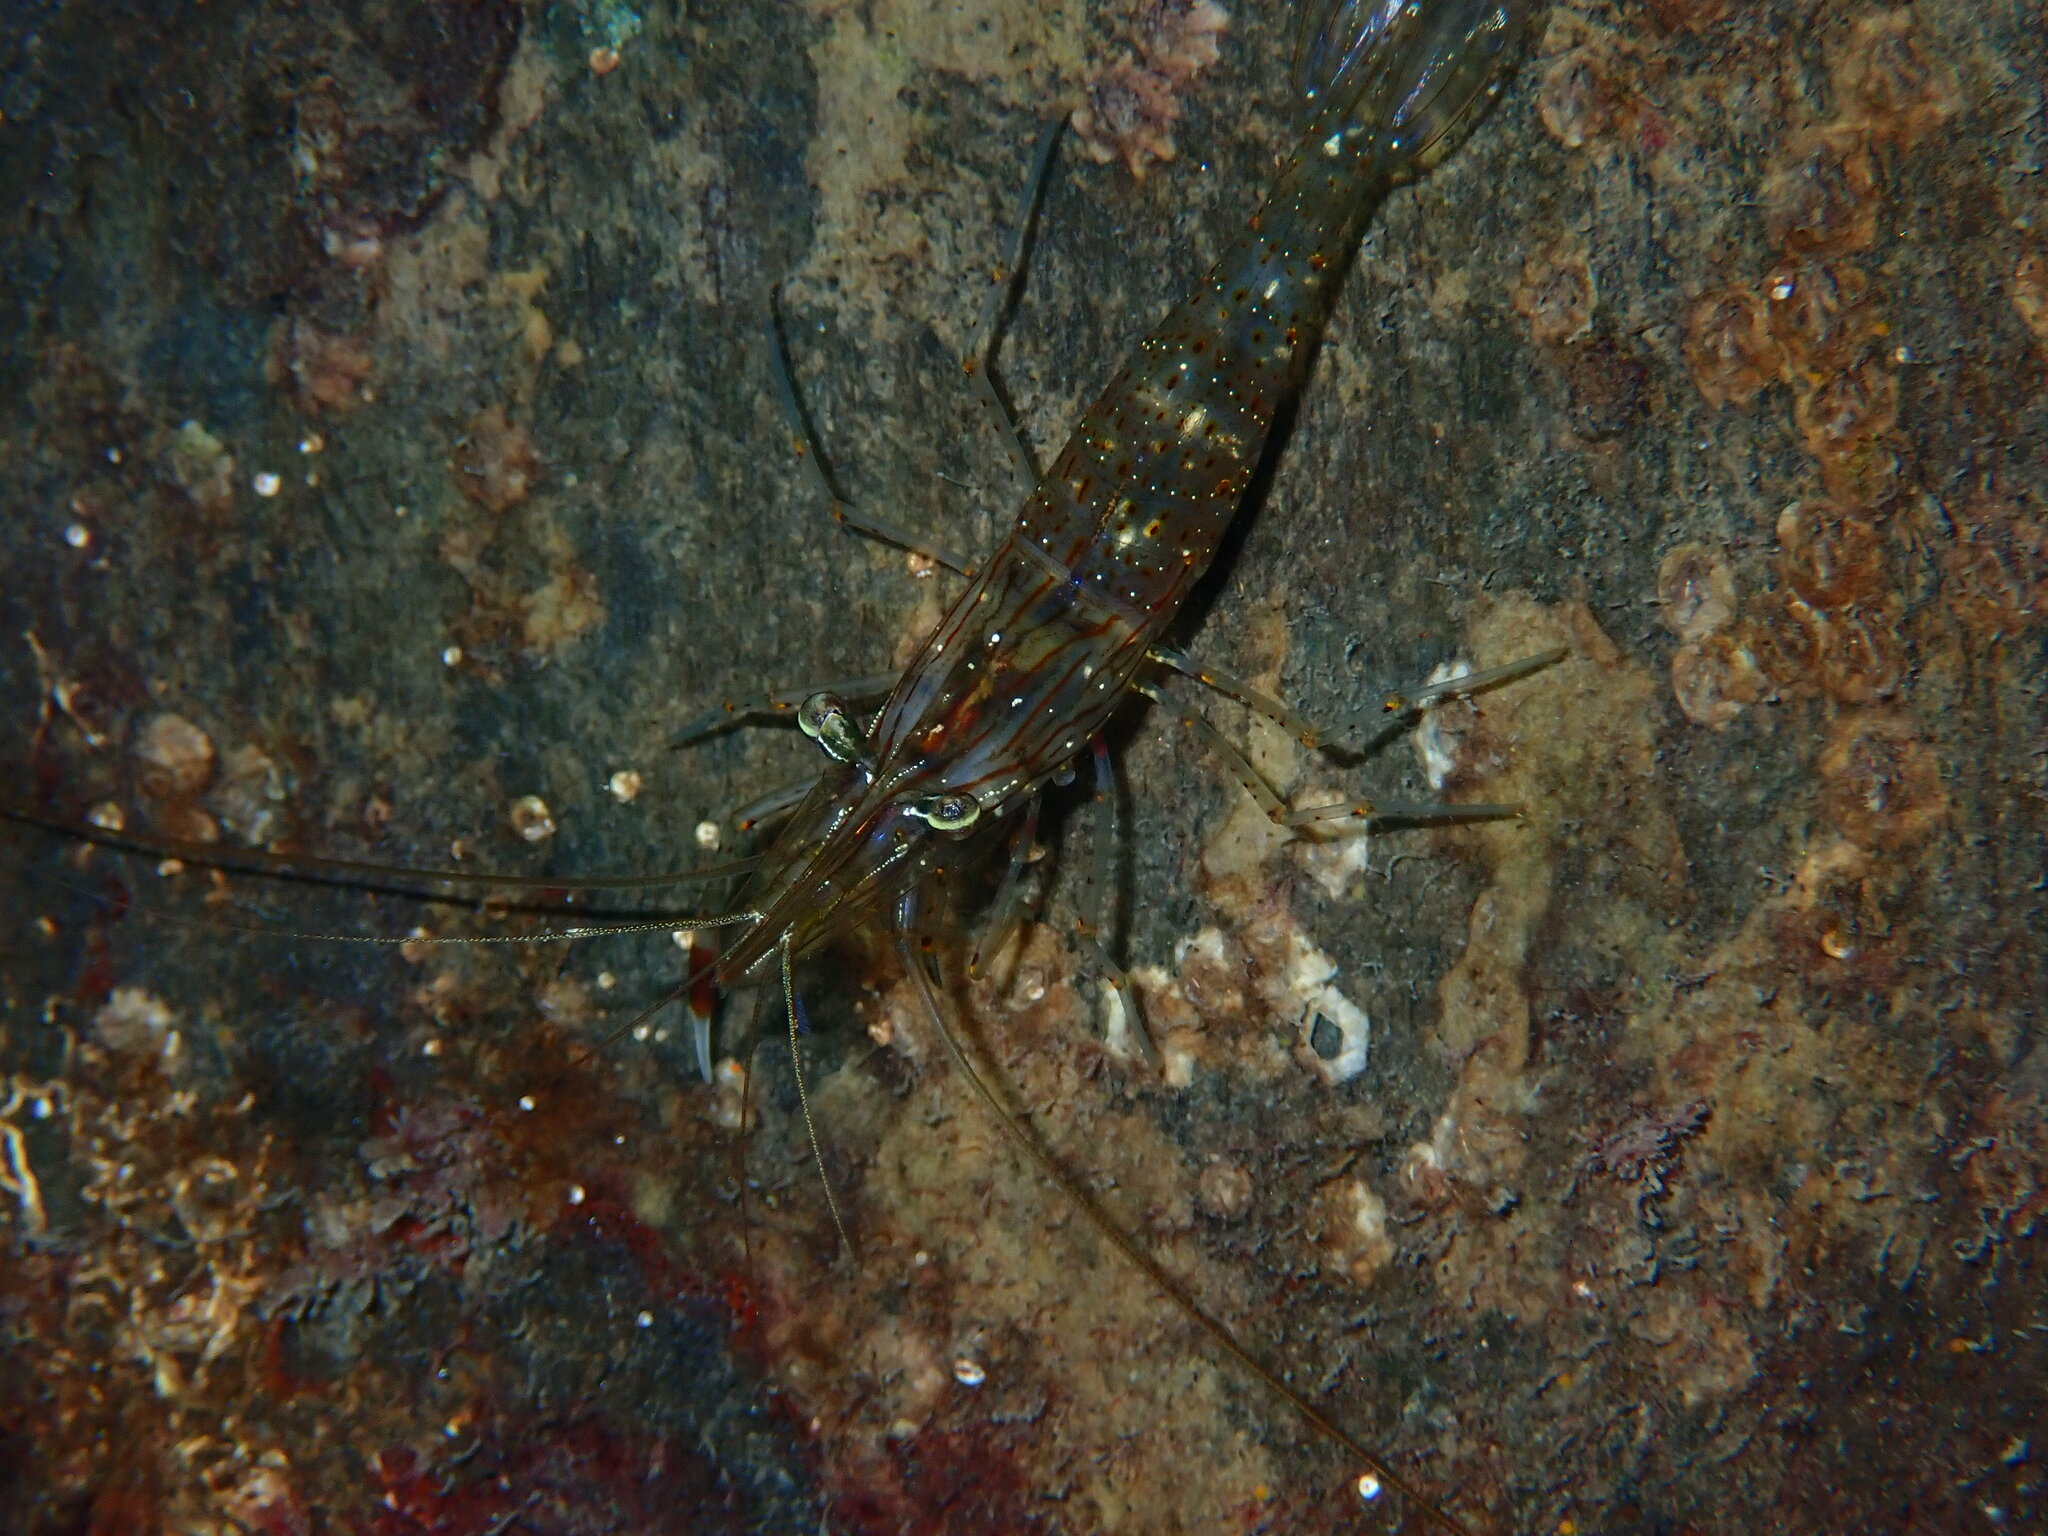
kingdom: Animalia
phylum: Arthropoda
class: Malacostraca
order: Decapoda
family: Palaemonidae
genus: Palaemon
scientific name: Palaemon serenus
